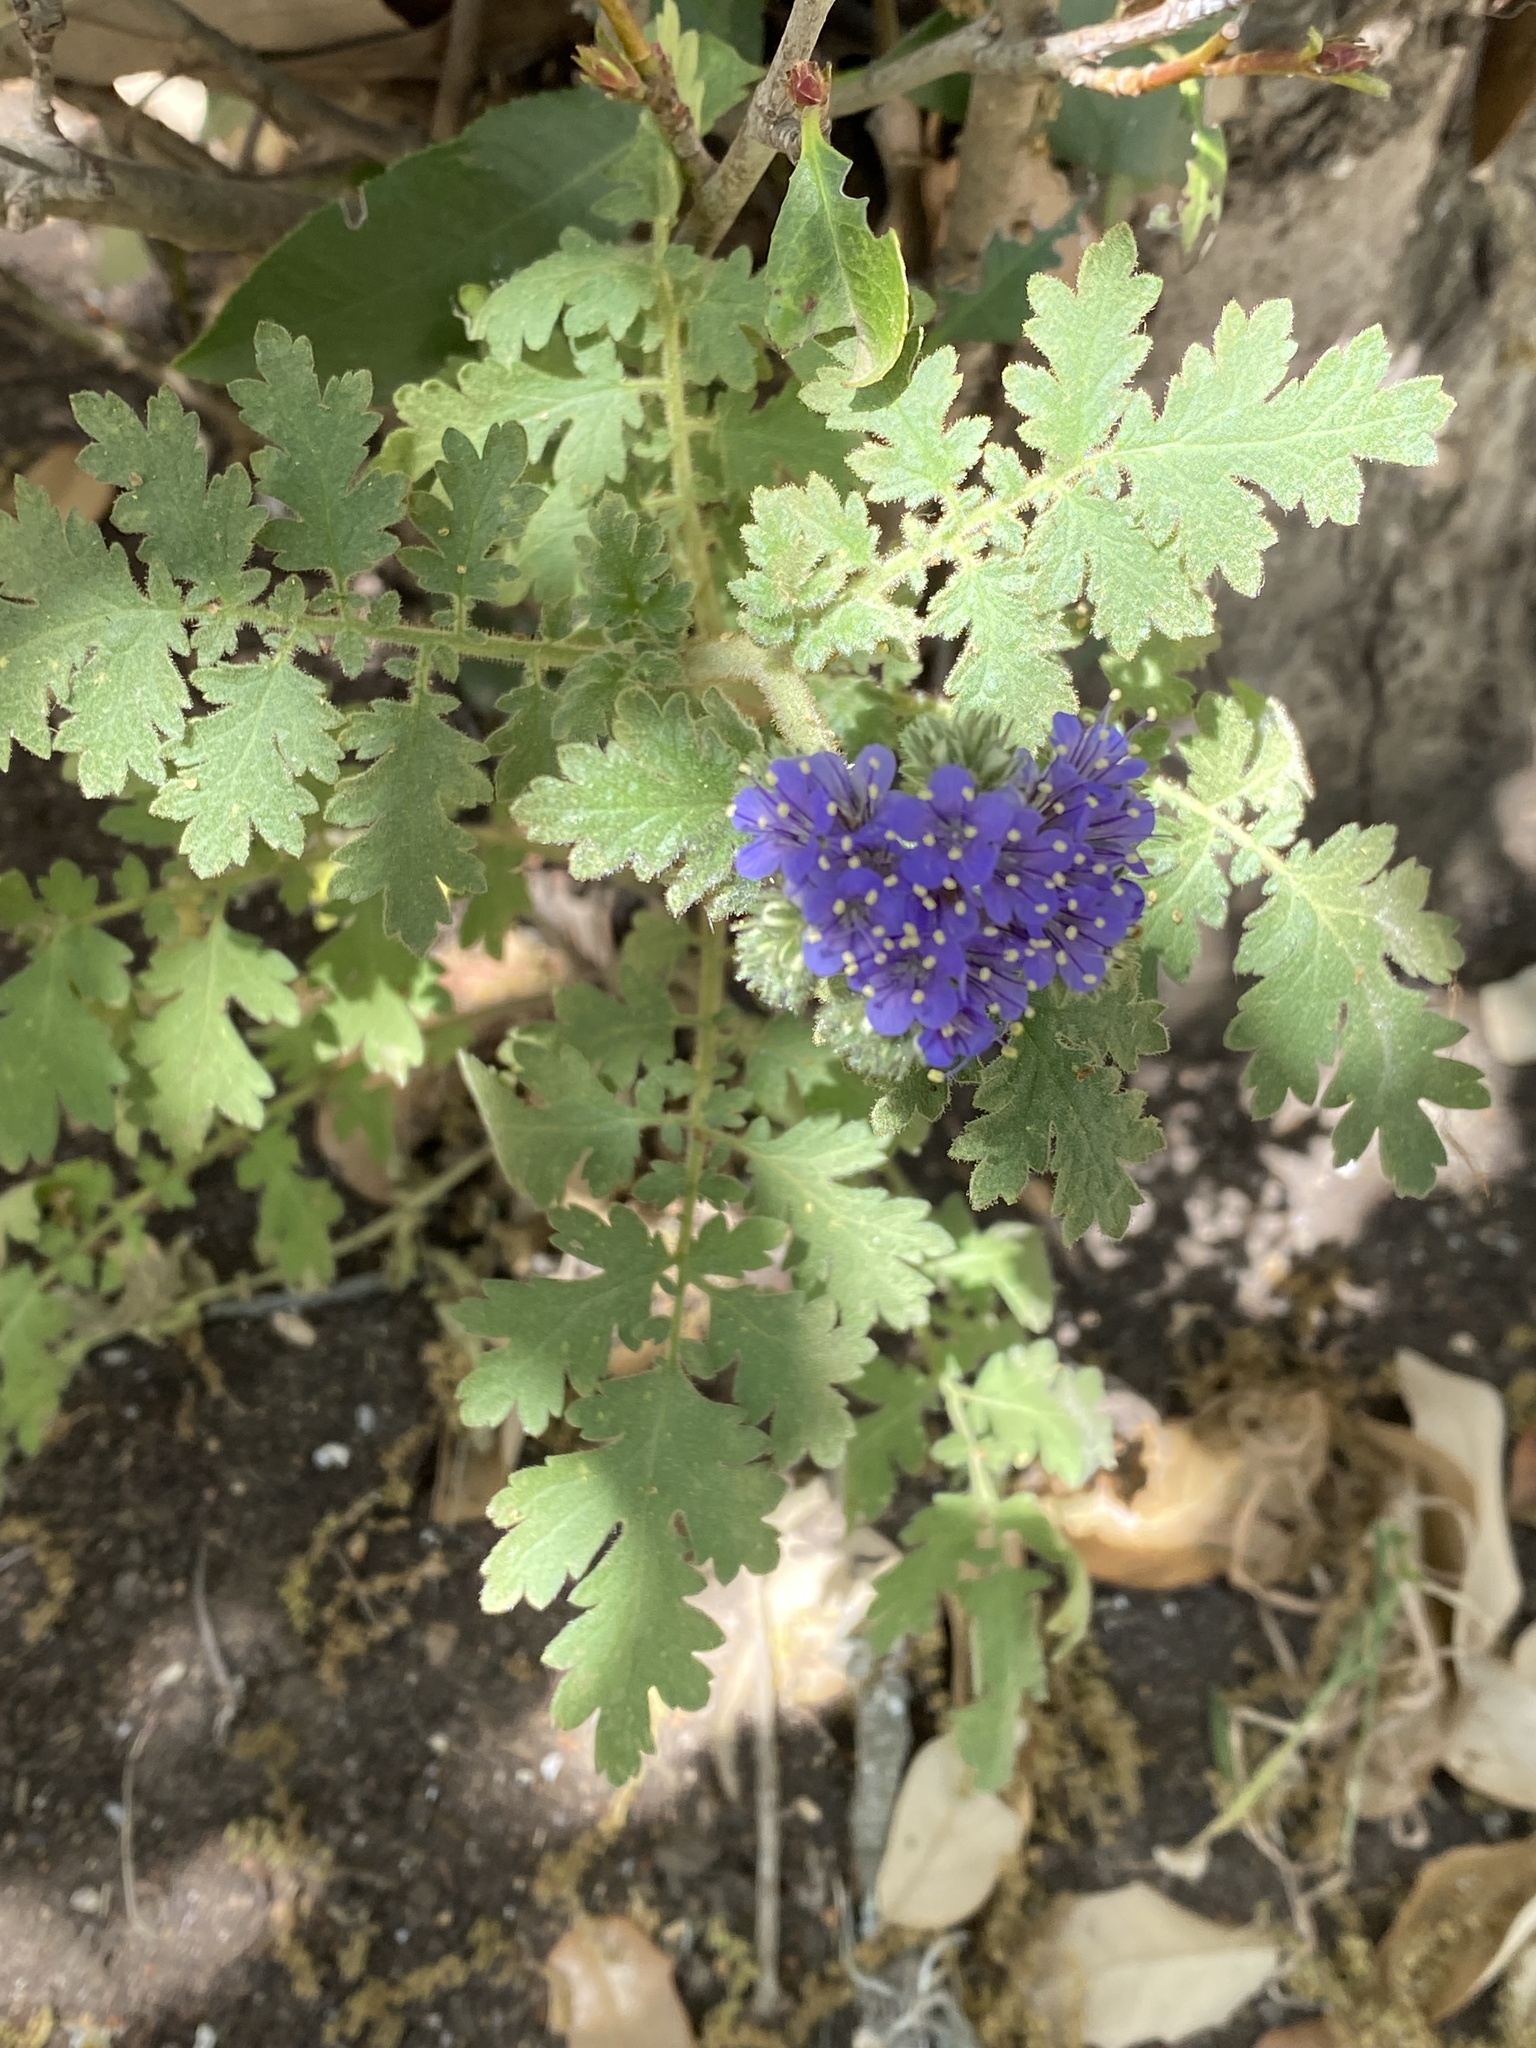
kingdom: Plantae
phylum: Tracheophyta
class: Magnoliopsida
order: Boraginales
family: Hydrophyllaceae
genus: Phacelia
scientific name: Phacelia congesta
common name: Blue curls
